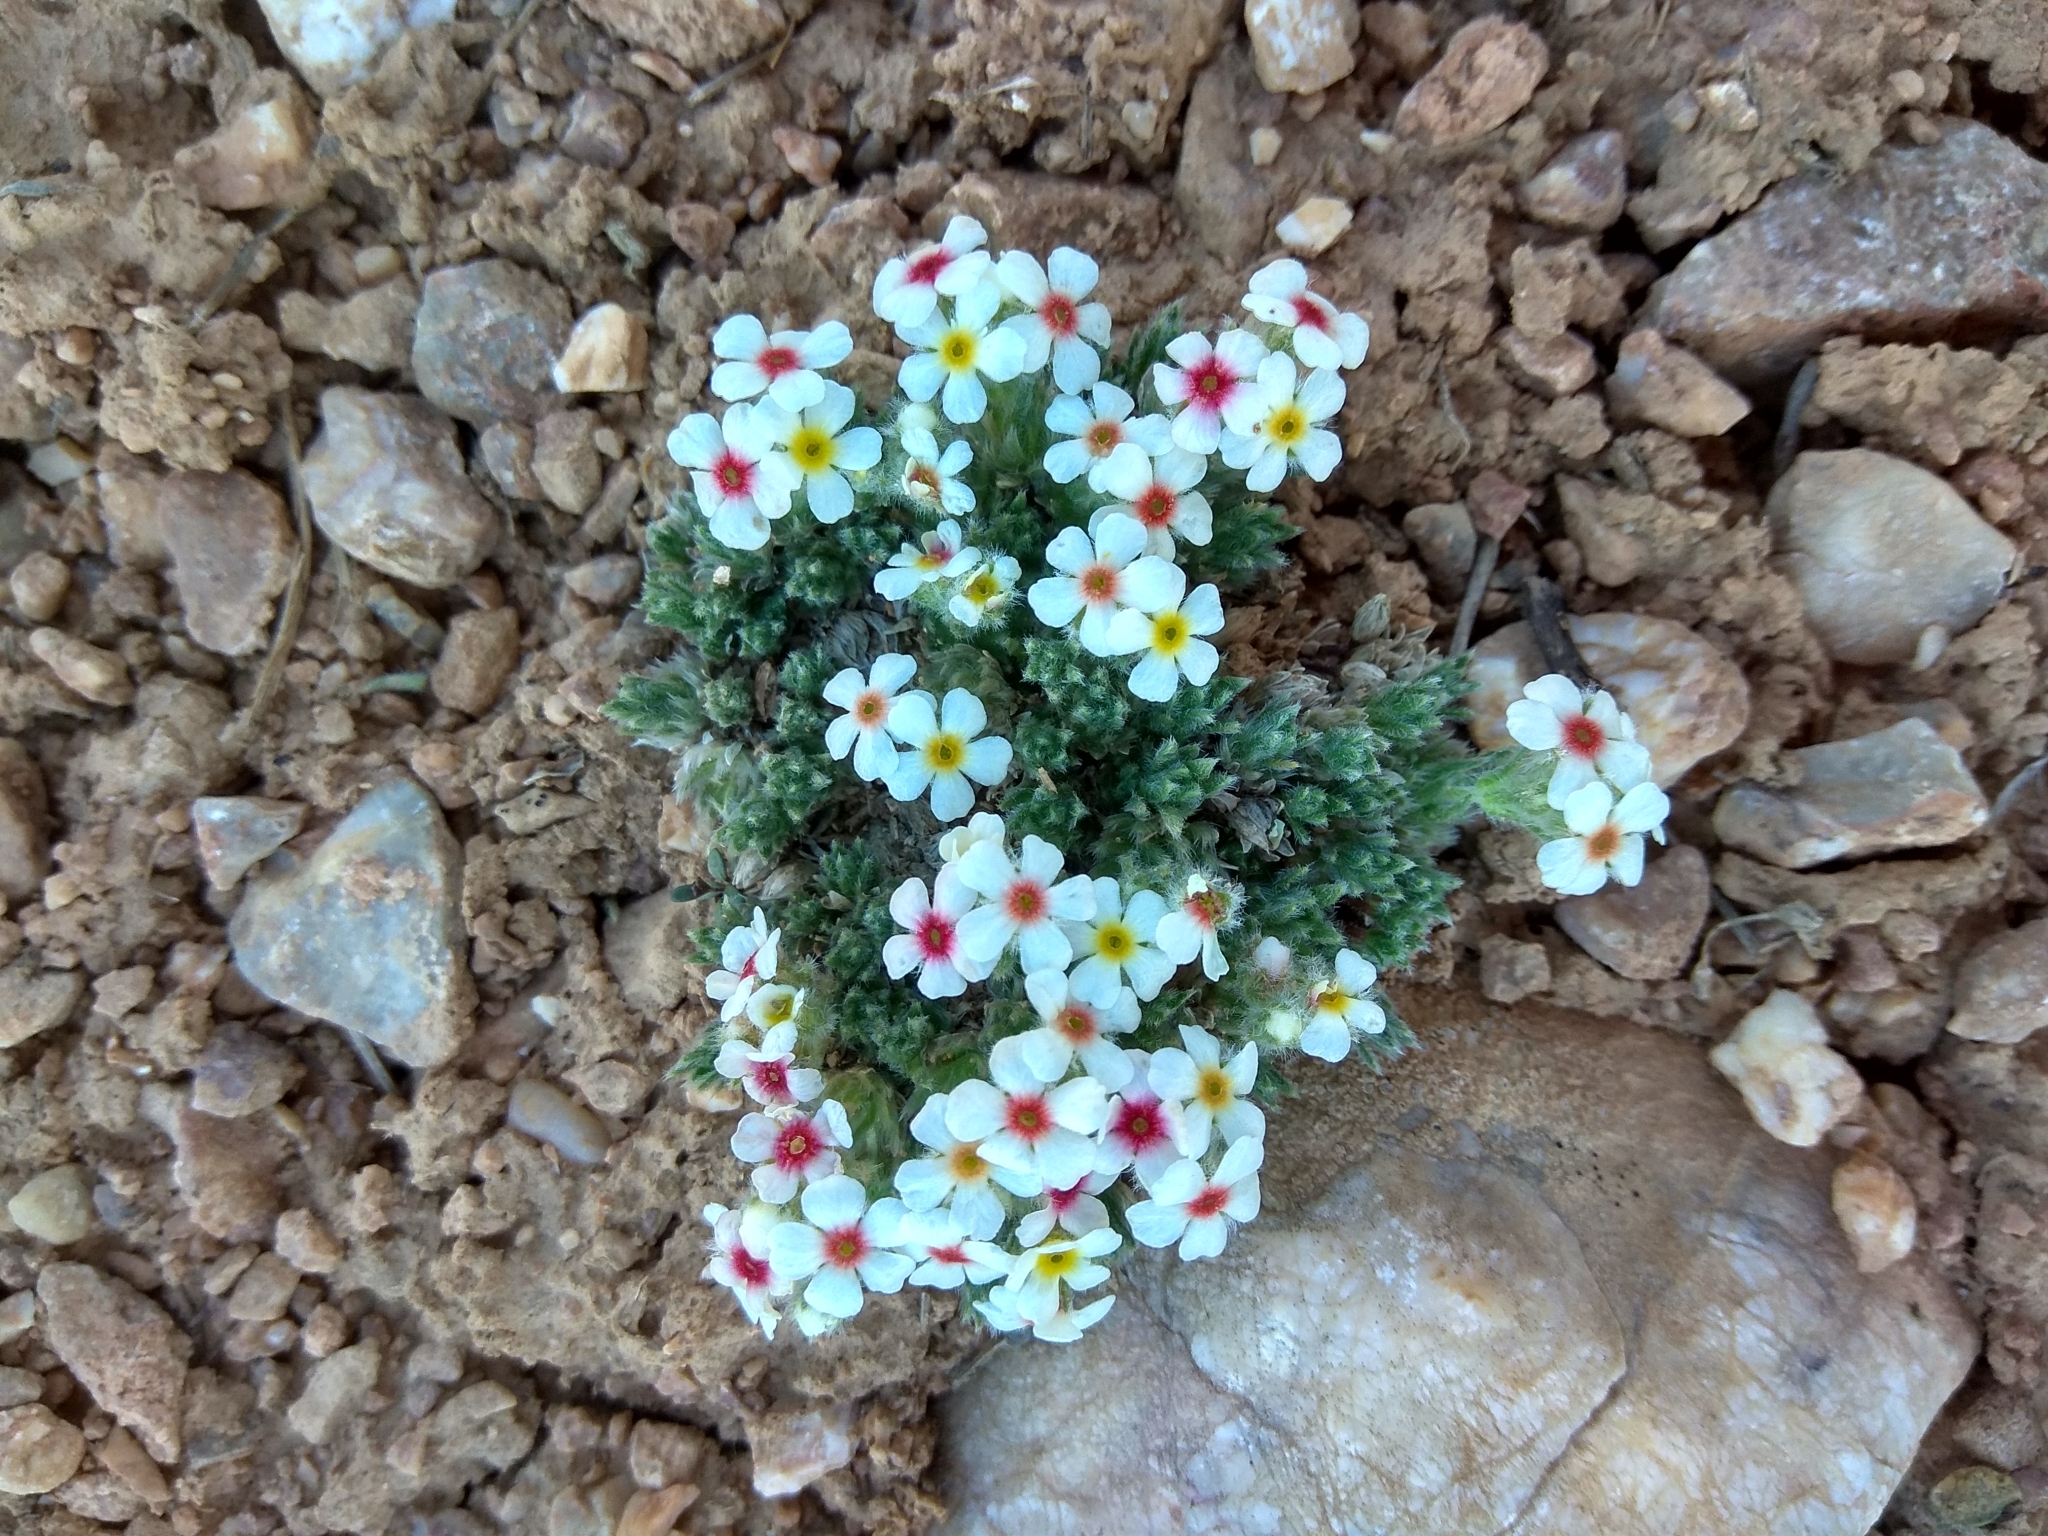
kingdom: Plantae
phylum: Tracheophyta
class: Magnoliopsida
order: Ericales
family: Primulaceae
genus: Androsace
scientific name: Androsace sericea
